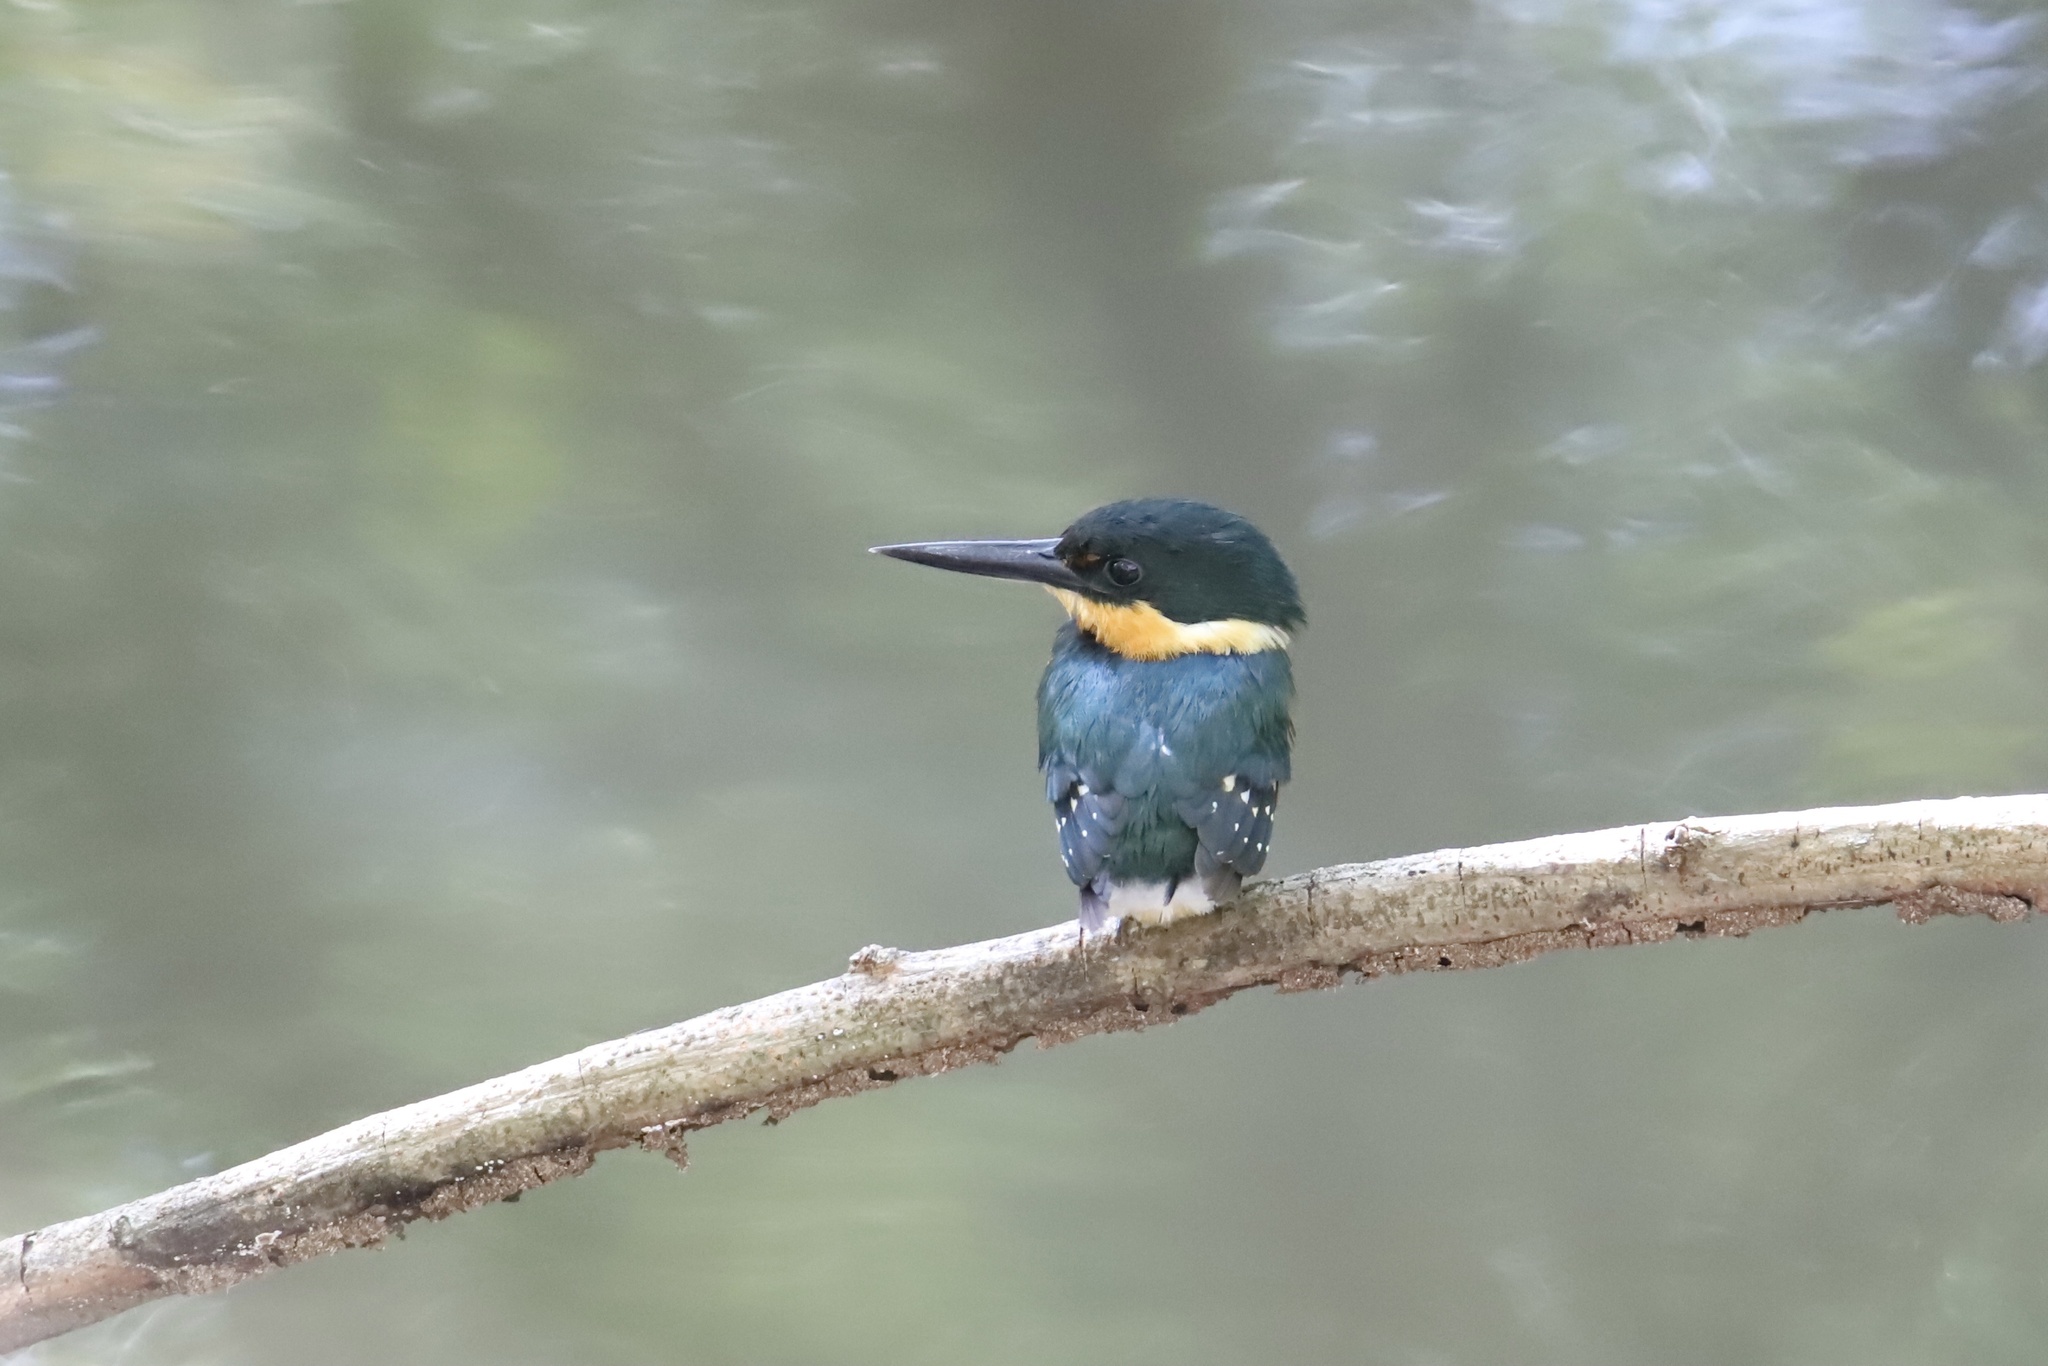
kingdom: Animalia
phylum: Chordata
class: Aves
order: Coraciiformes
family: Alcedinidae
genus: Chloroceryle
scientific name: Chloroceryle aenea
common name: American pygmy kingfisher
